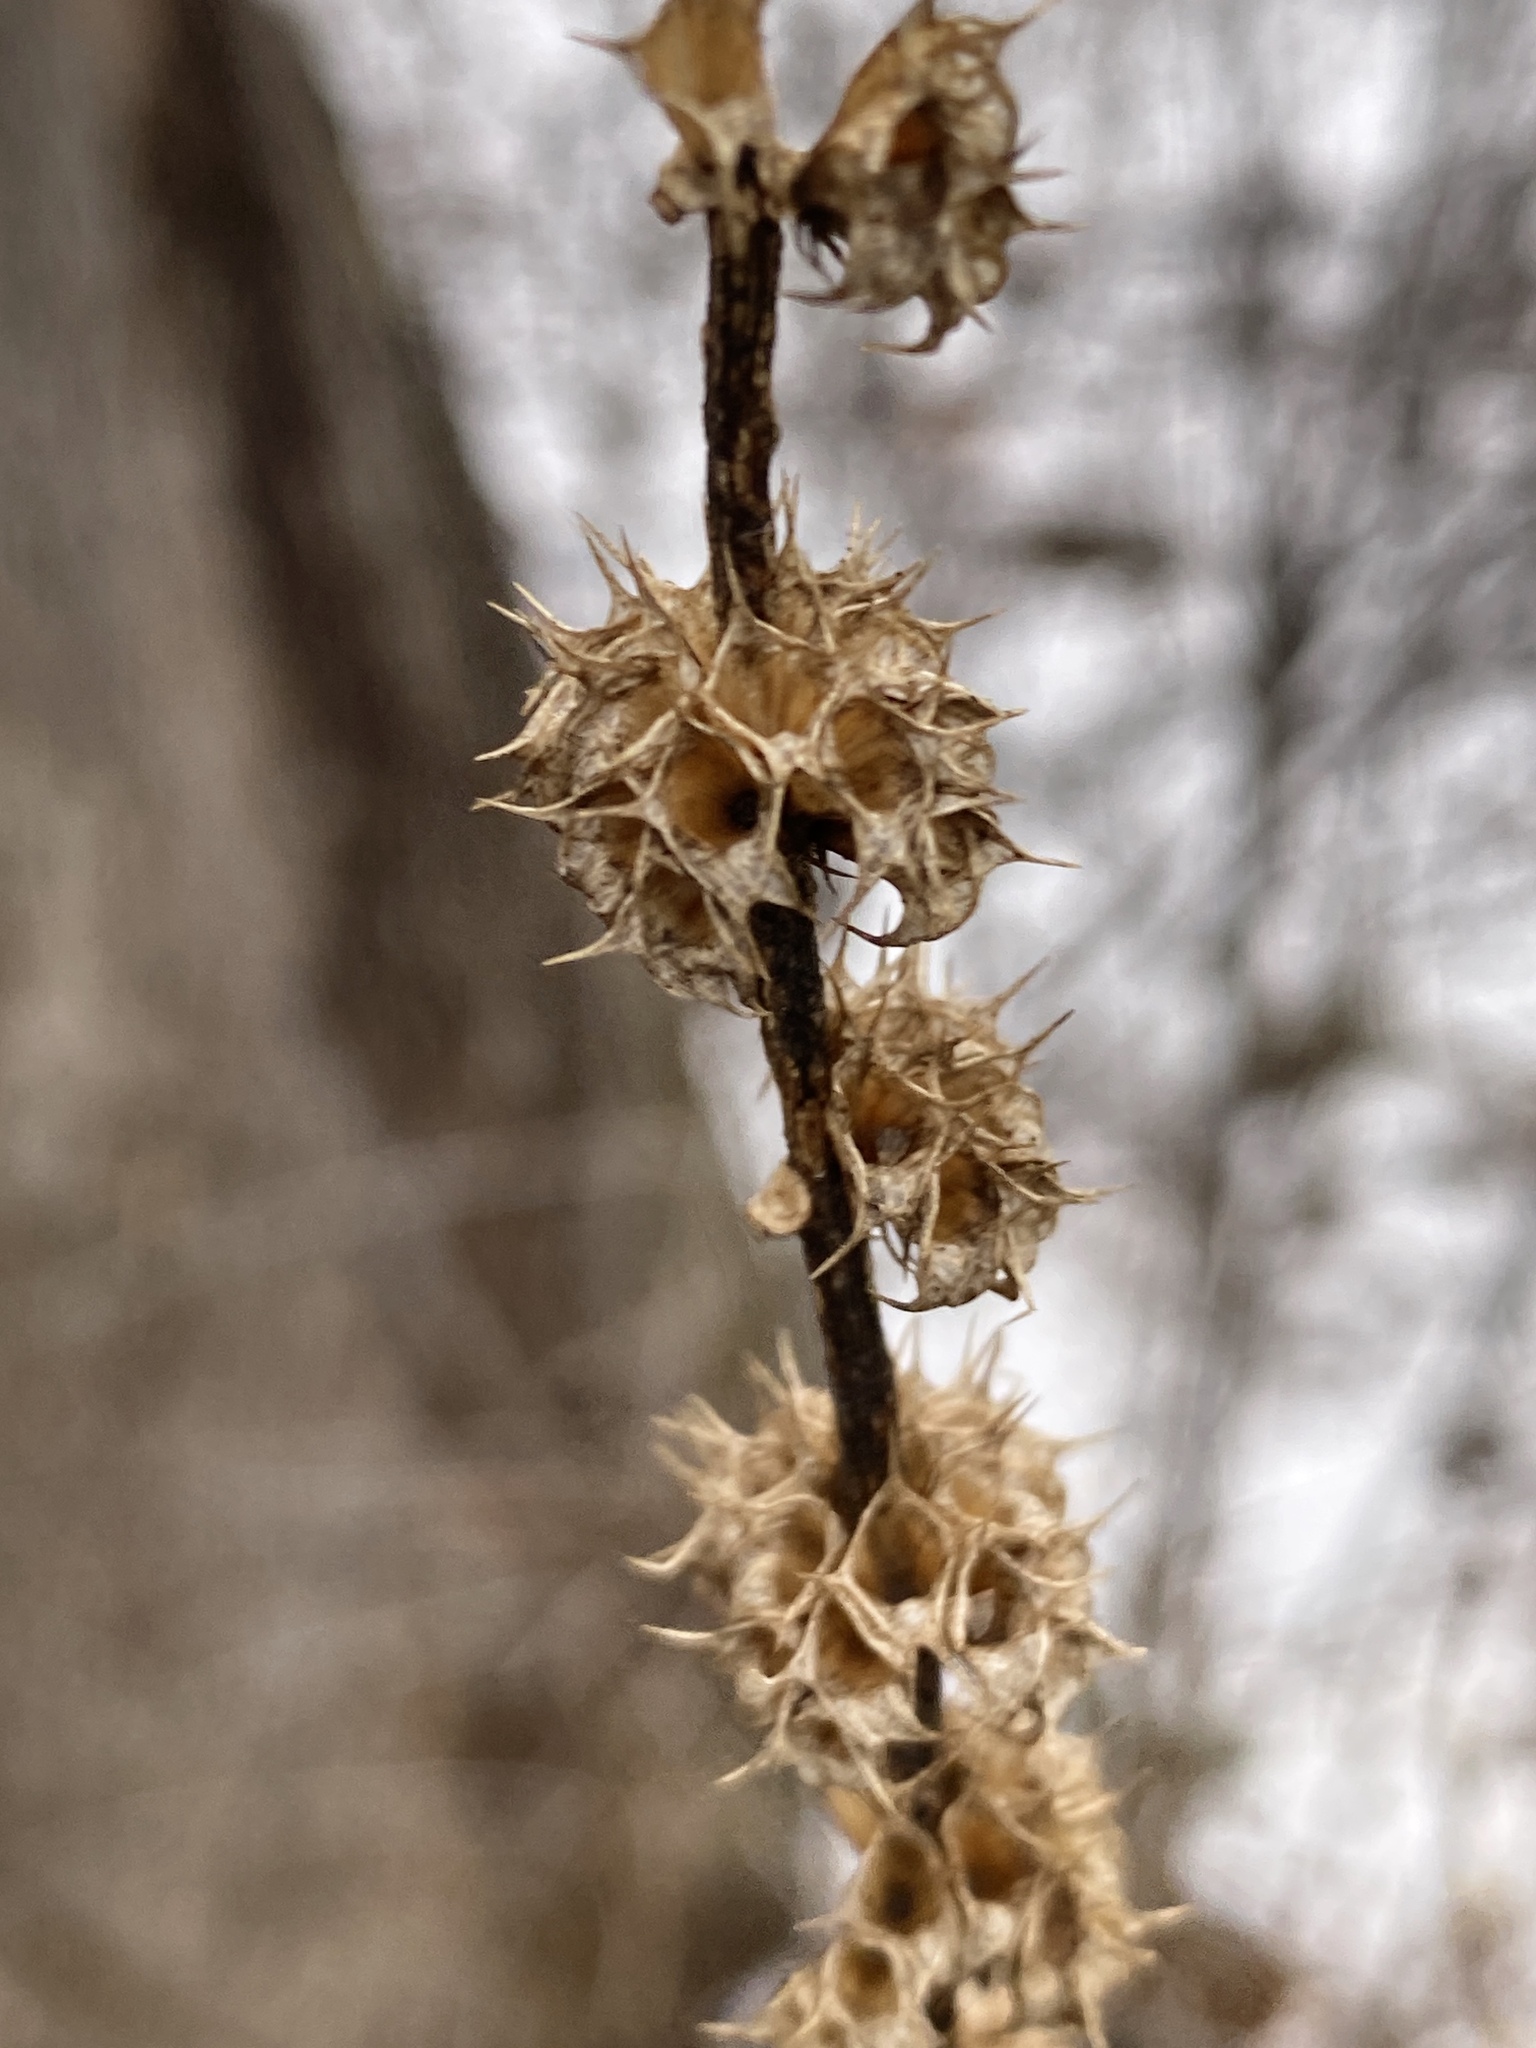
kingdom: Plantae
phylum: Tracheophyta
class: Magnoliopsida
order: Lamiales
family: Lamiaceae
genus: Leonurus
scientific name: Leonurus cardiaca
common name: Motherwort
